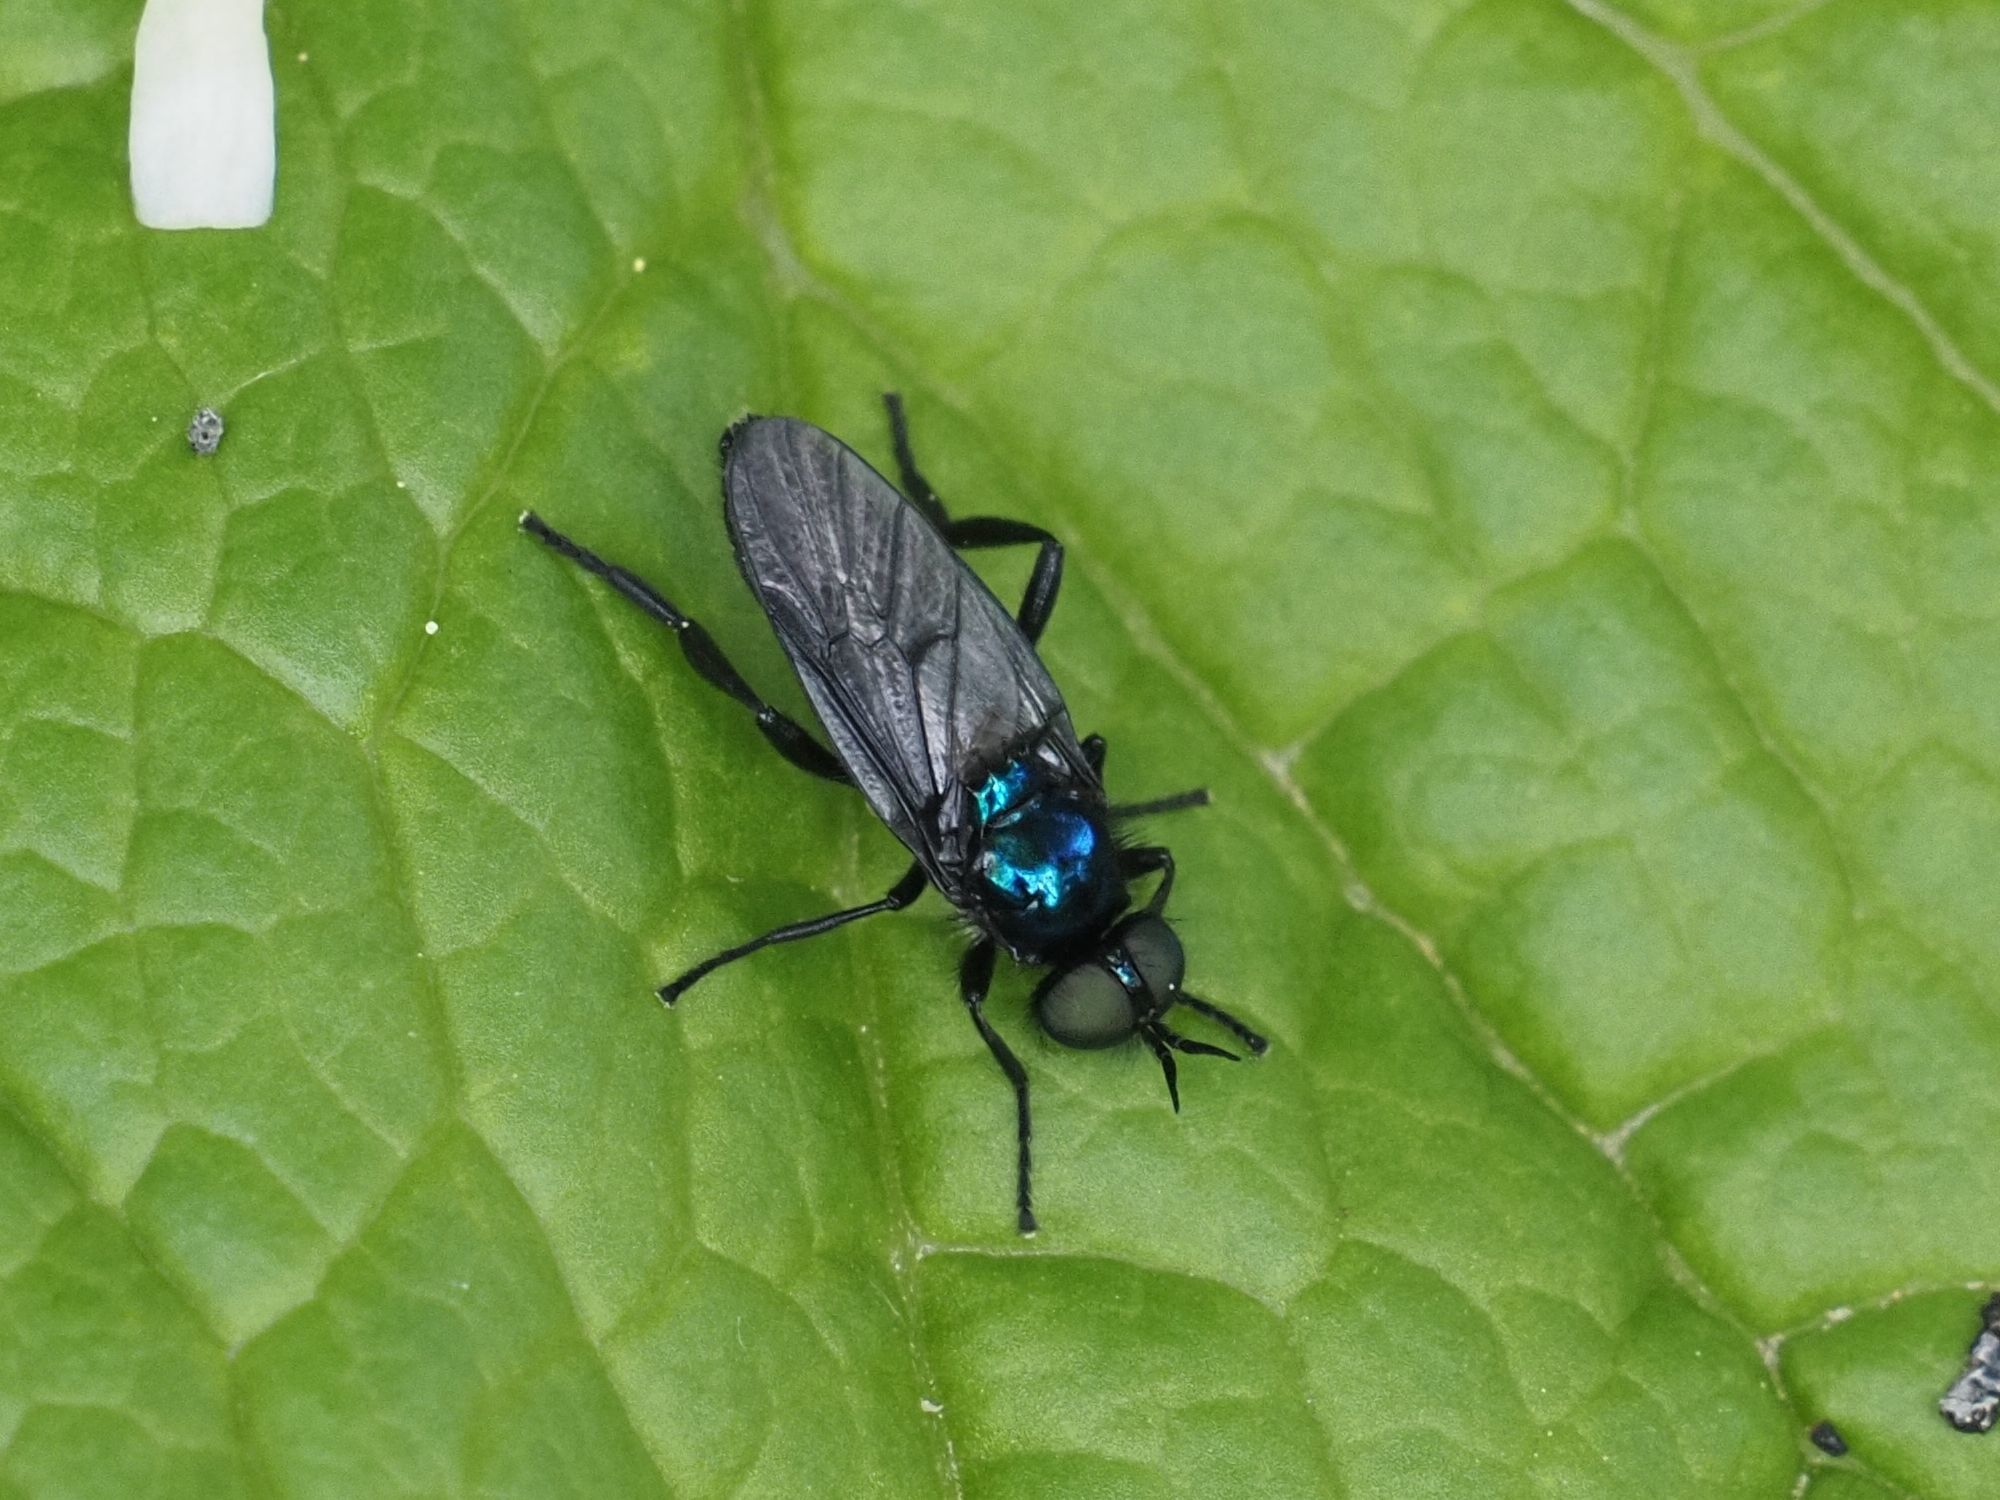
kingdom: Animalia
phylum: Arthropoda
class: Insecta
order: Diptera
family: Stratiomyidae
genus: Actina
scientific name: Actina chalybea
